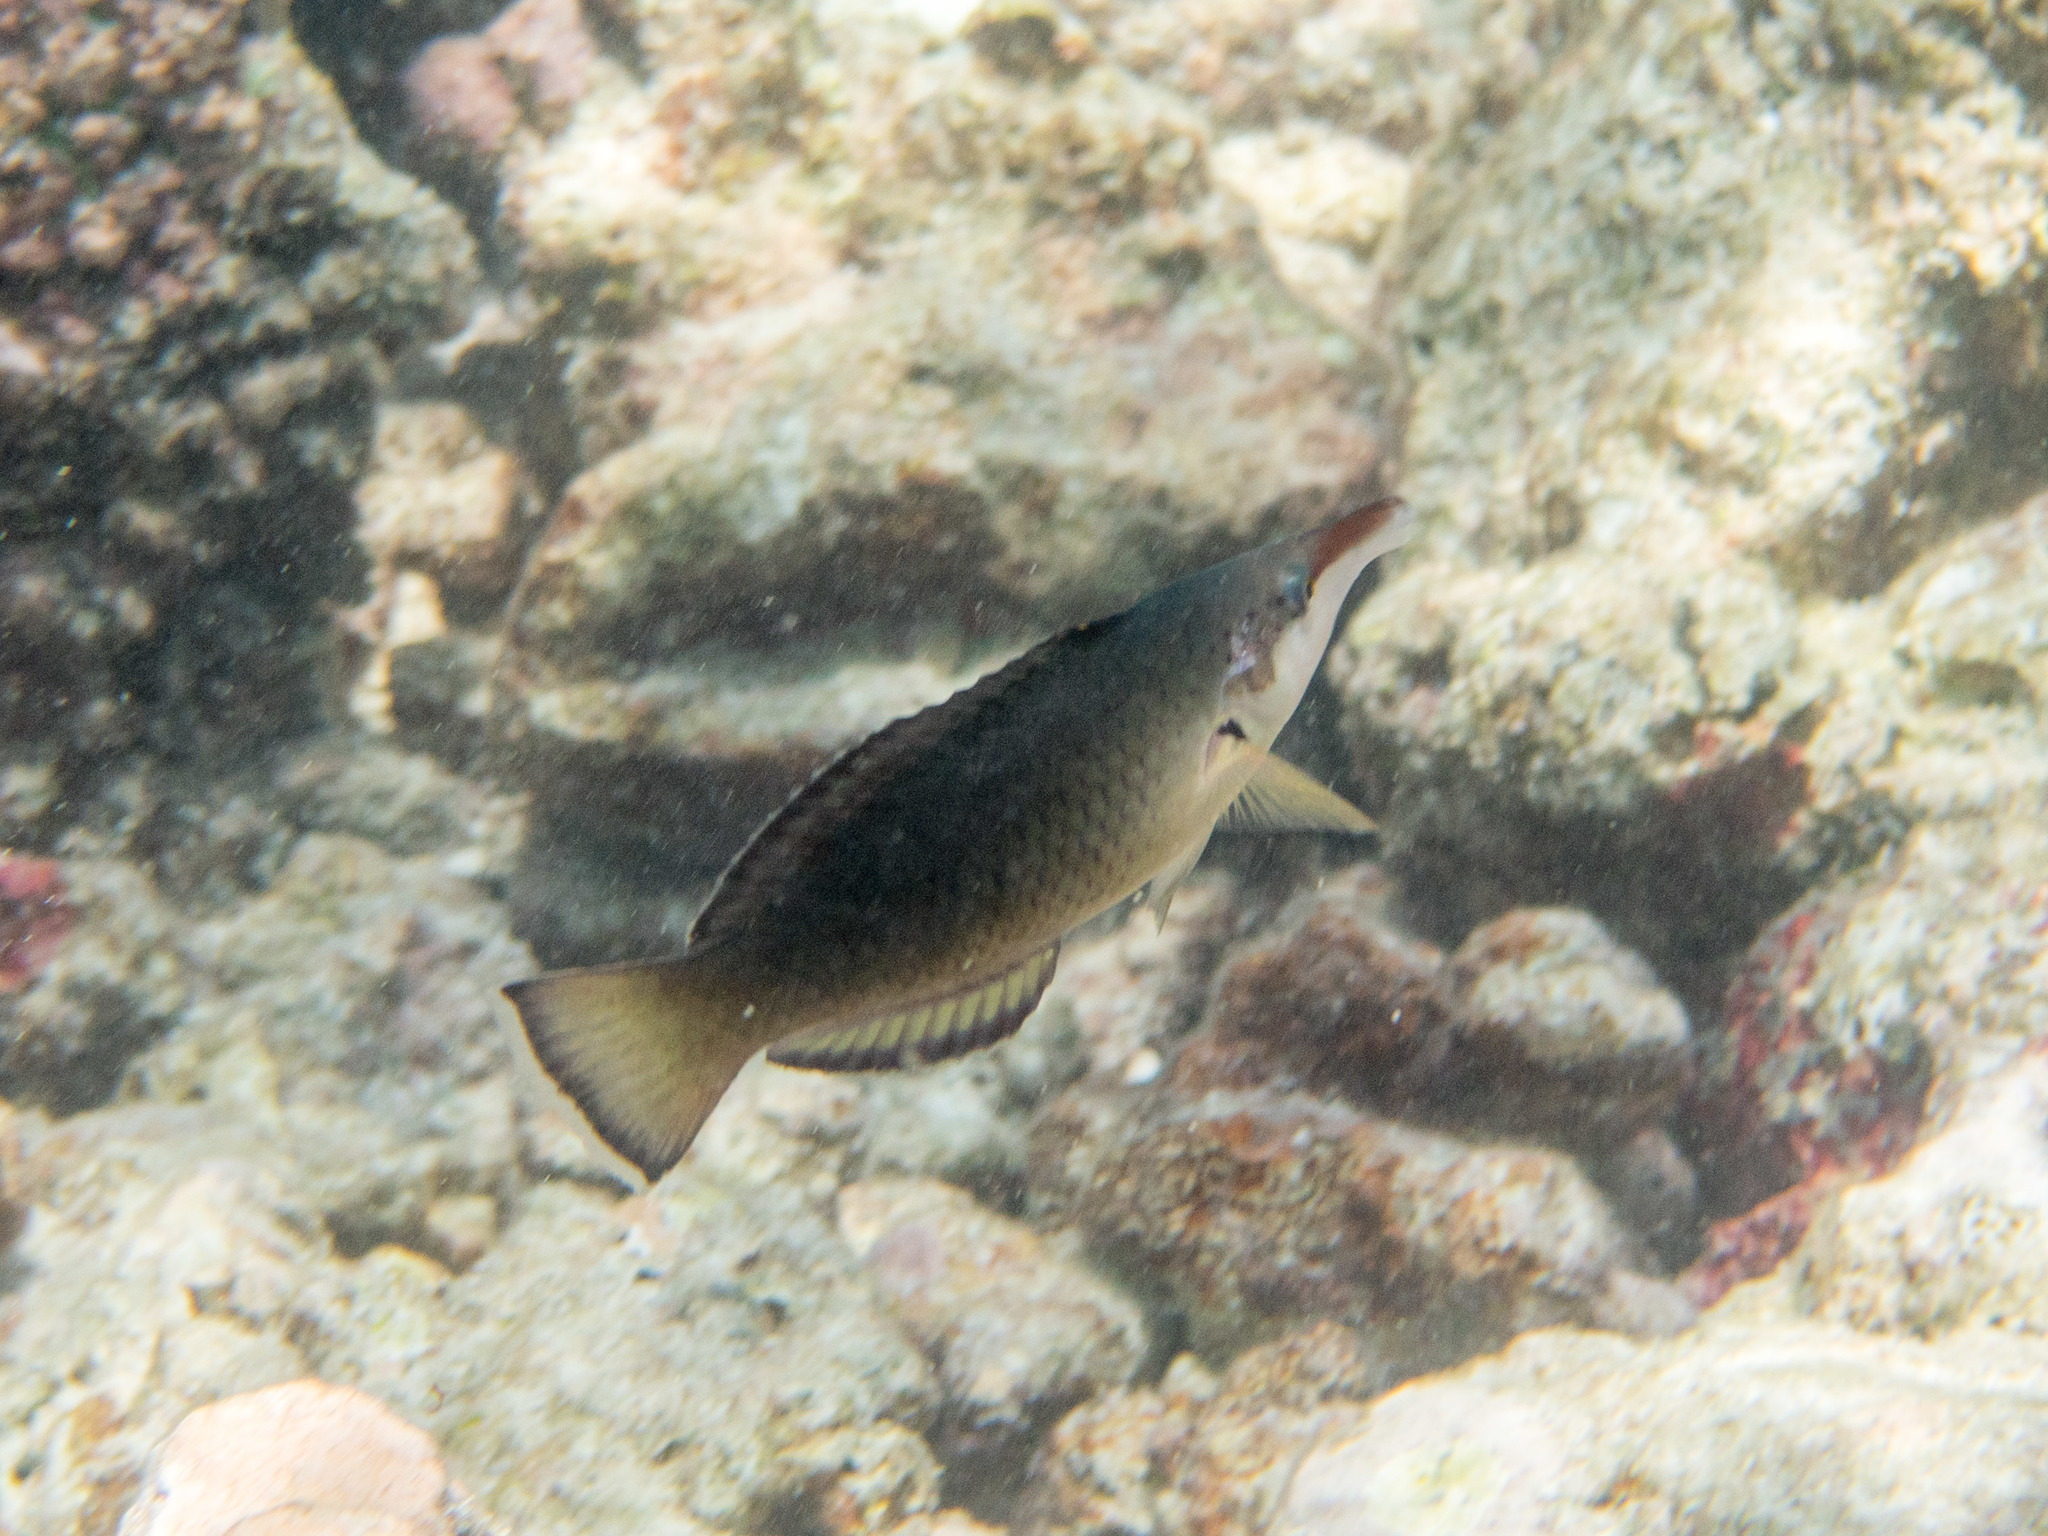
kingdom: Animalia
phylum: Chordata
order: Perciformes
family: Labridae
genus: Gomphosus
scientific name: Gomphosus caeruleus
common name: Bird wrasse
